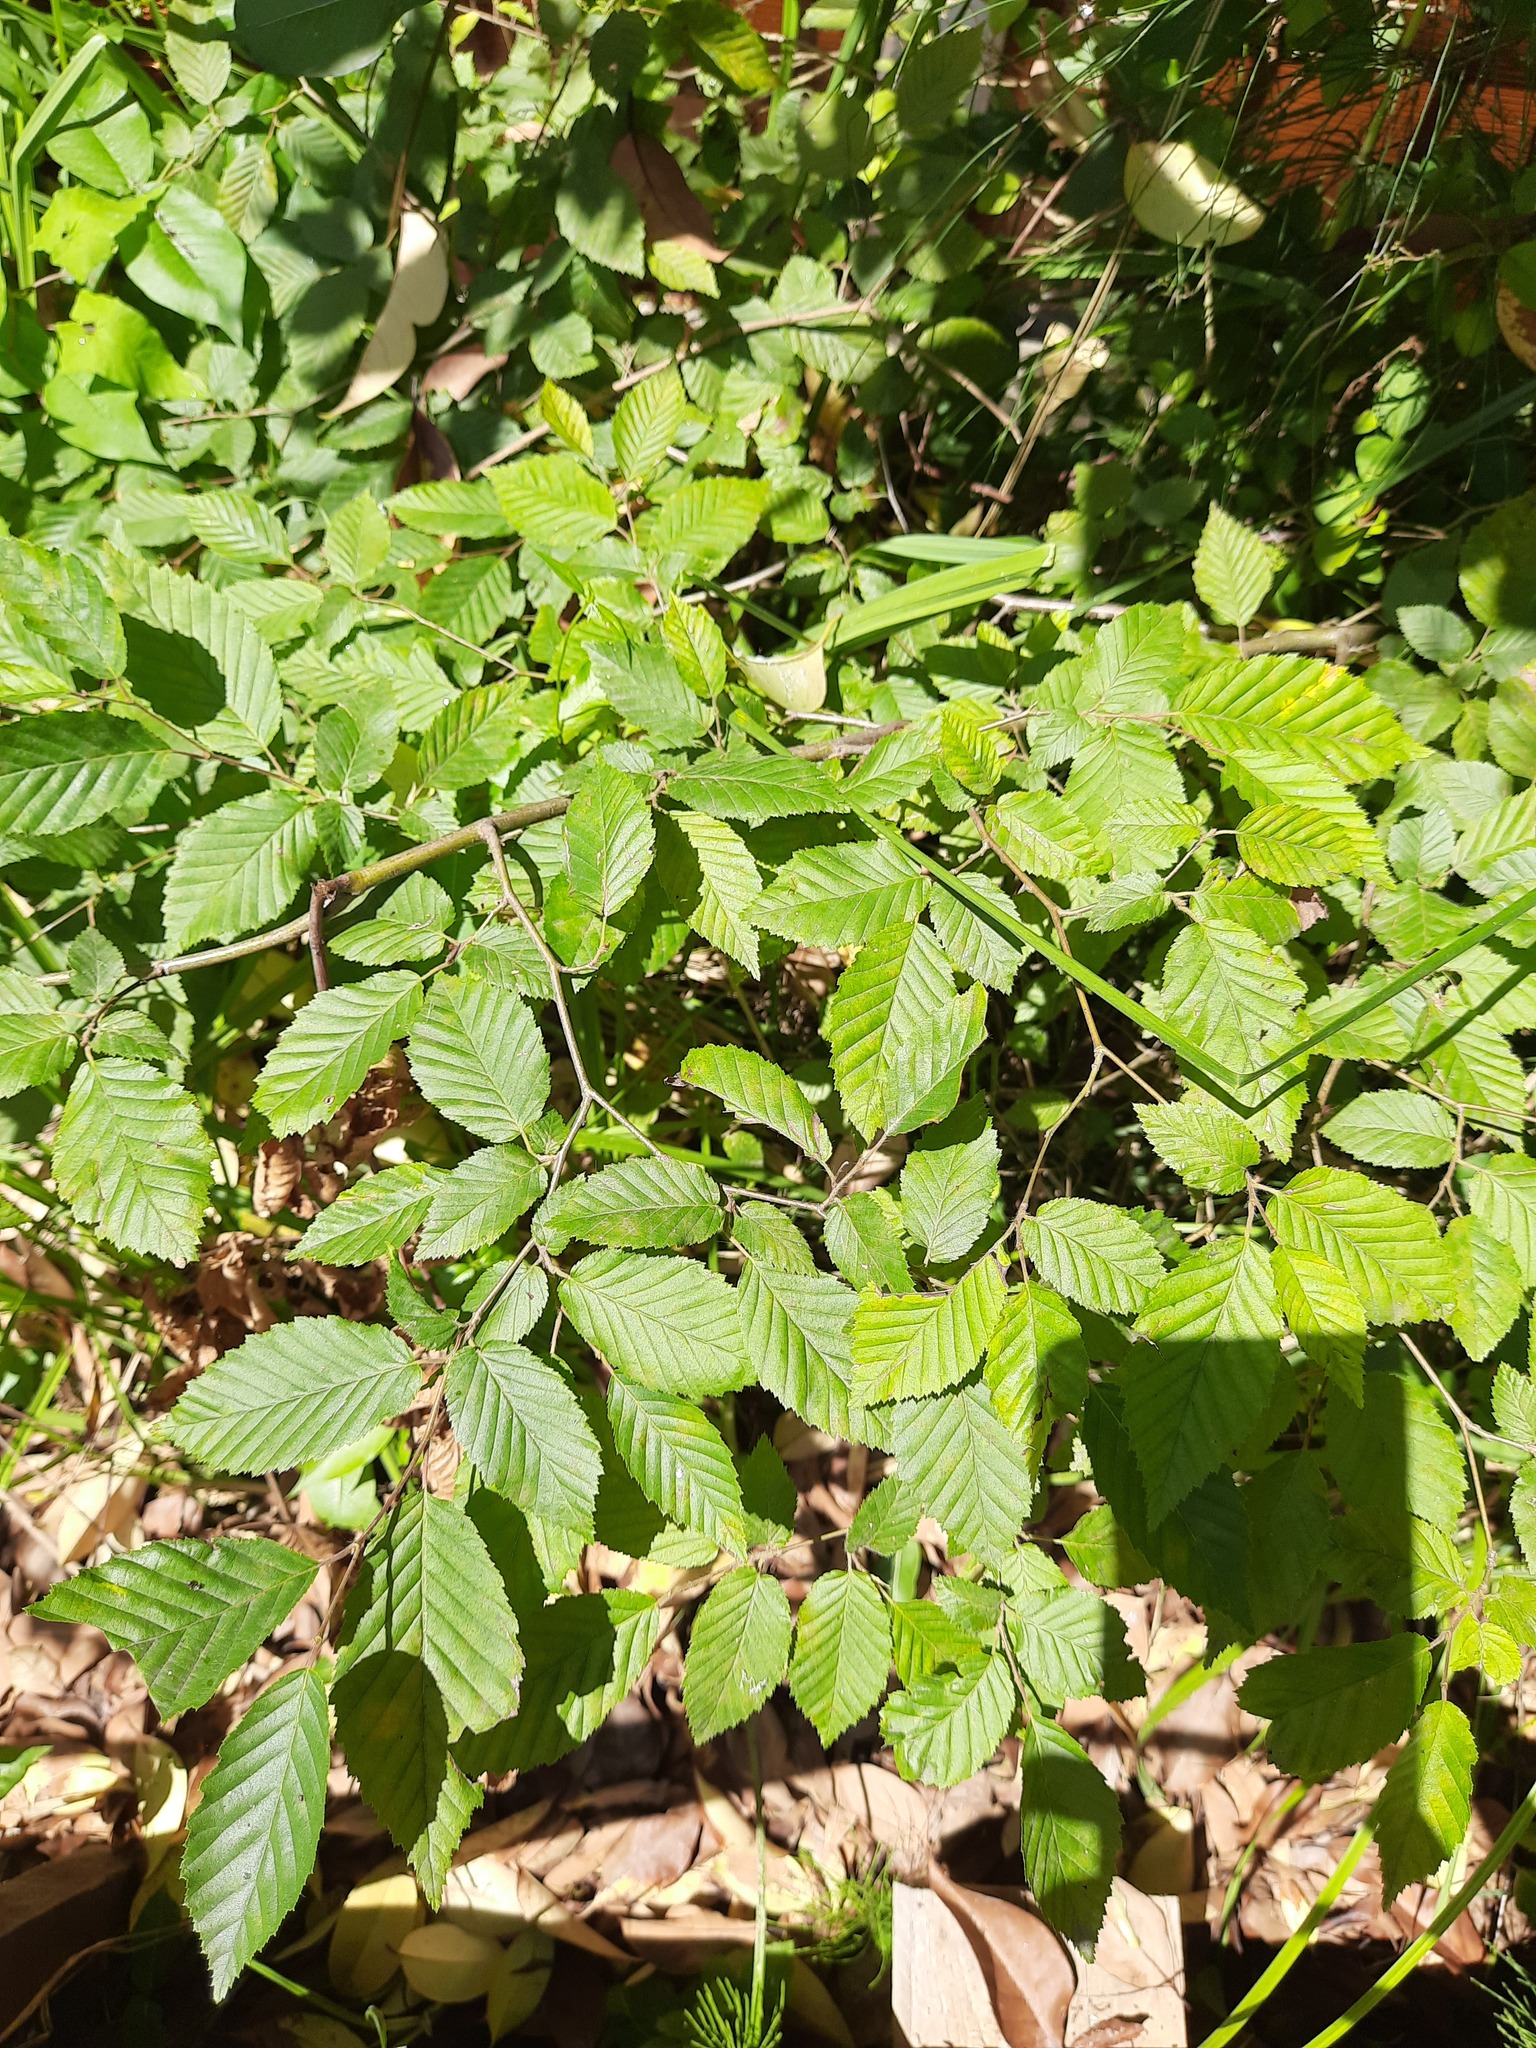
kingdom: Plantae
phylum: Tracheophyta
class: Magnoliopsida
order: Fagales
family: Betulaceae
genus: Carpinus
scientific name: Carpinus orientalis
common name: Eastern hornbeam
